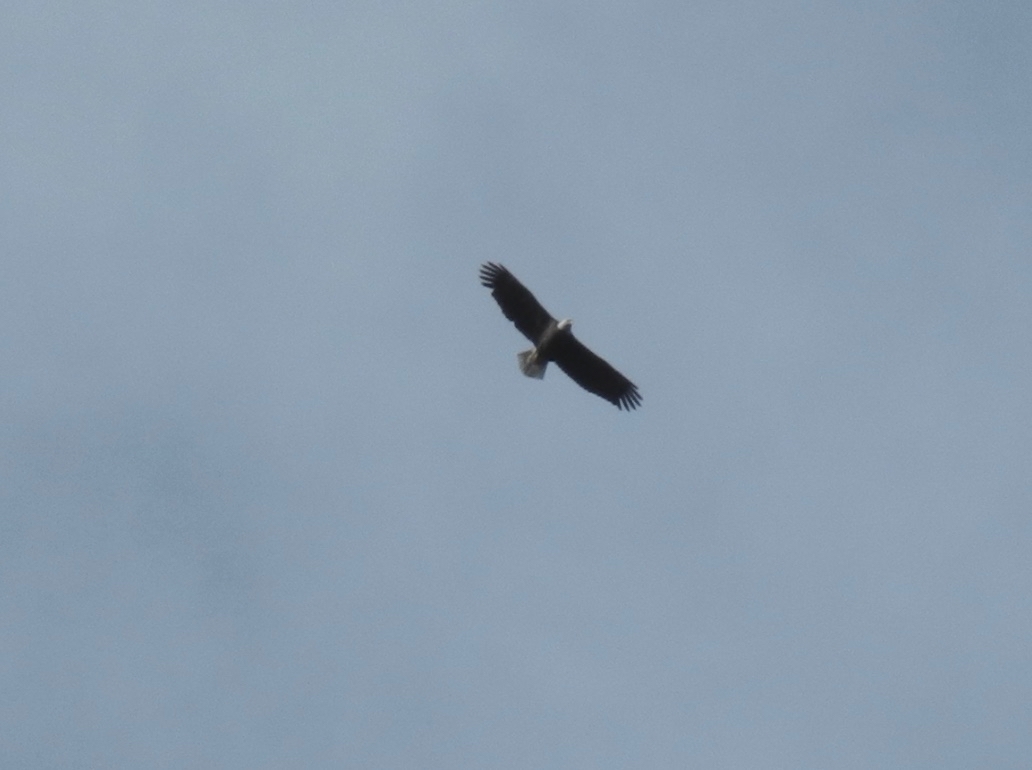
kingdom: Animalia
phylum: Chordata
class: Aves
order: Accipitriformes
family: Accipitridae
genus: Haliaeetus
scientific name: Haliaeetus leucocephalus
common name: Bald eagle
